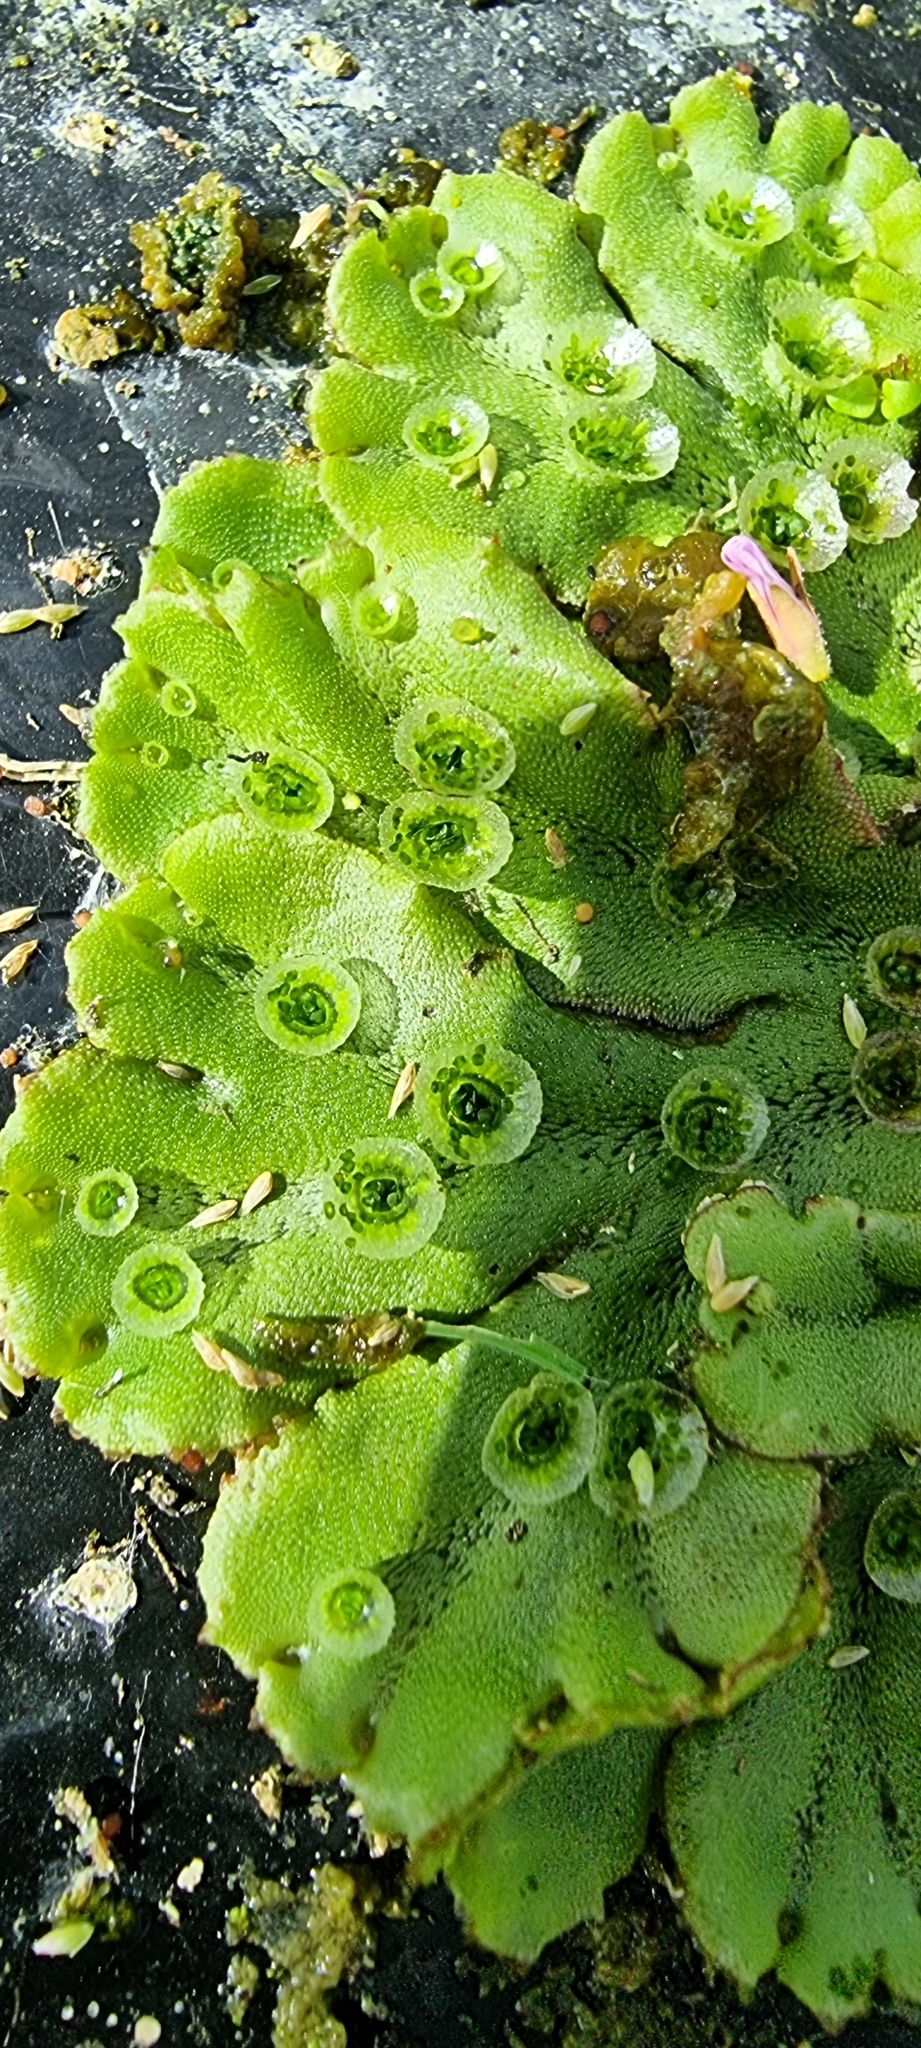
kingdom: Plantae
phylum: Marchantiophyta
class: Marchantiopsida
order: Marchantiales
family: Marchantiaceae
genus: Marchantia
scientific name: Marchantia polymorpha
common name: Common liverwort
